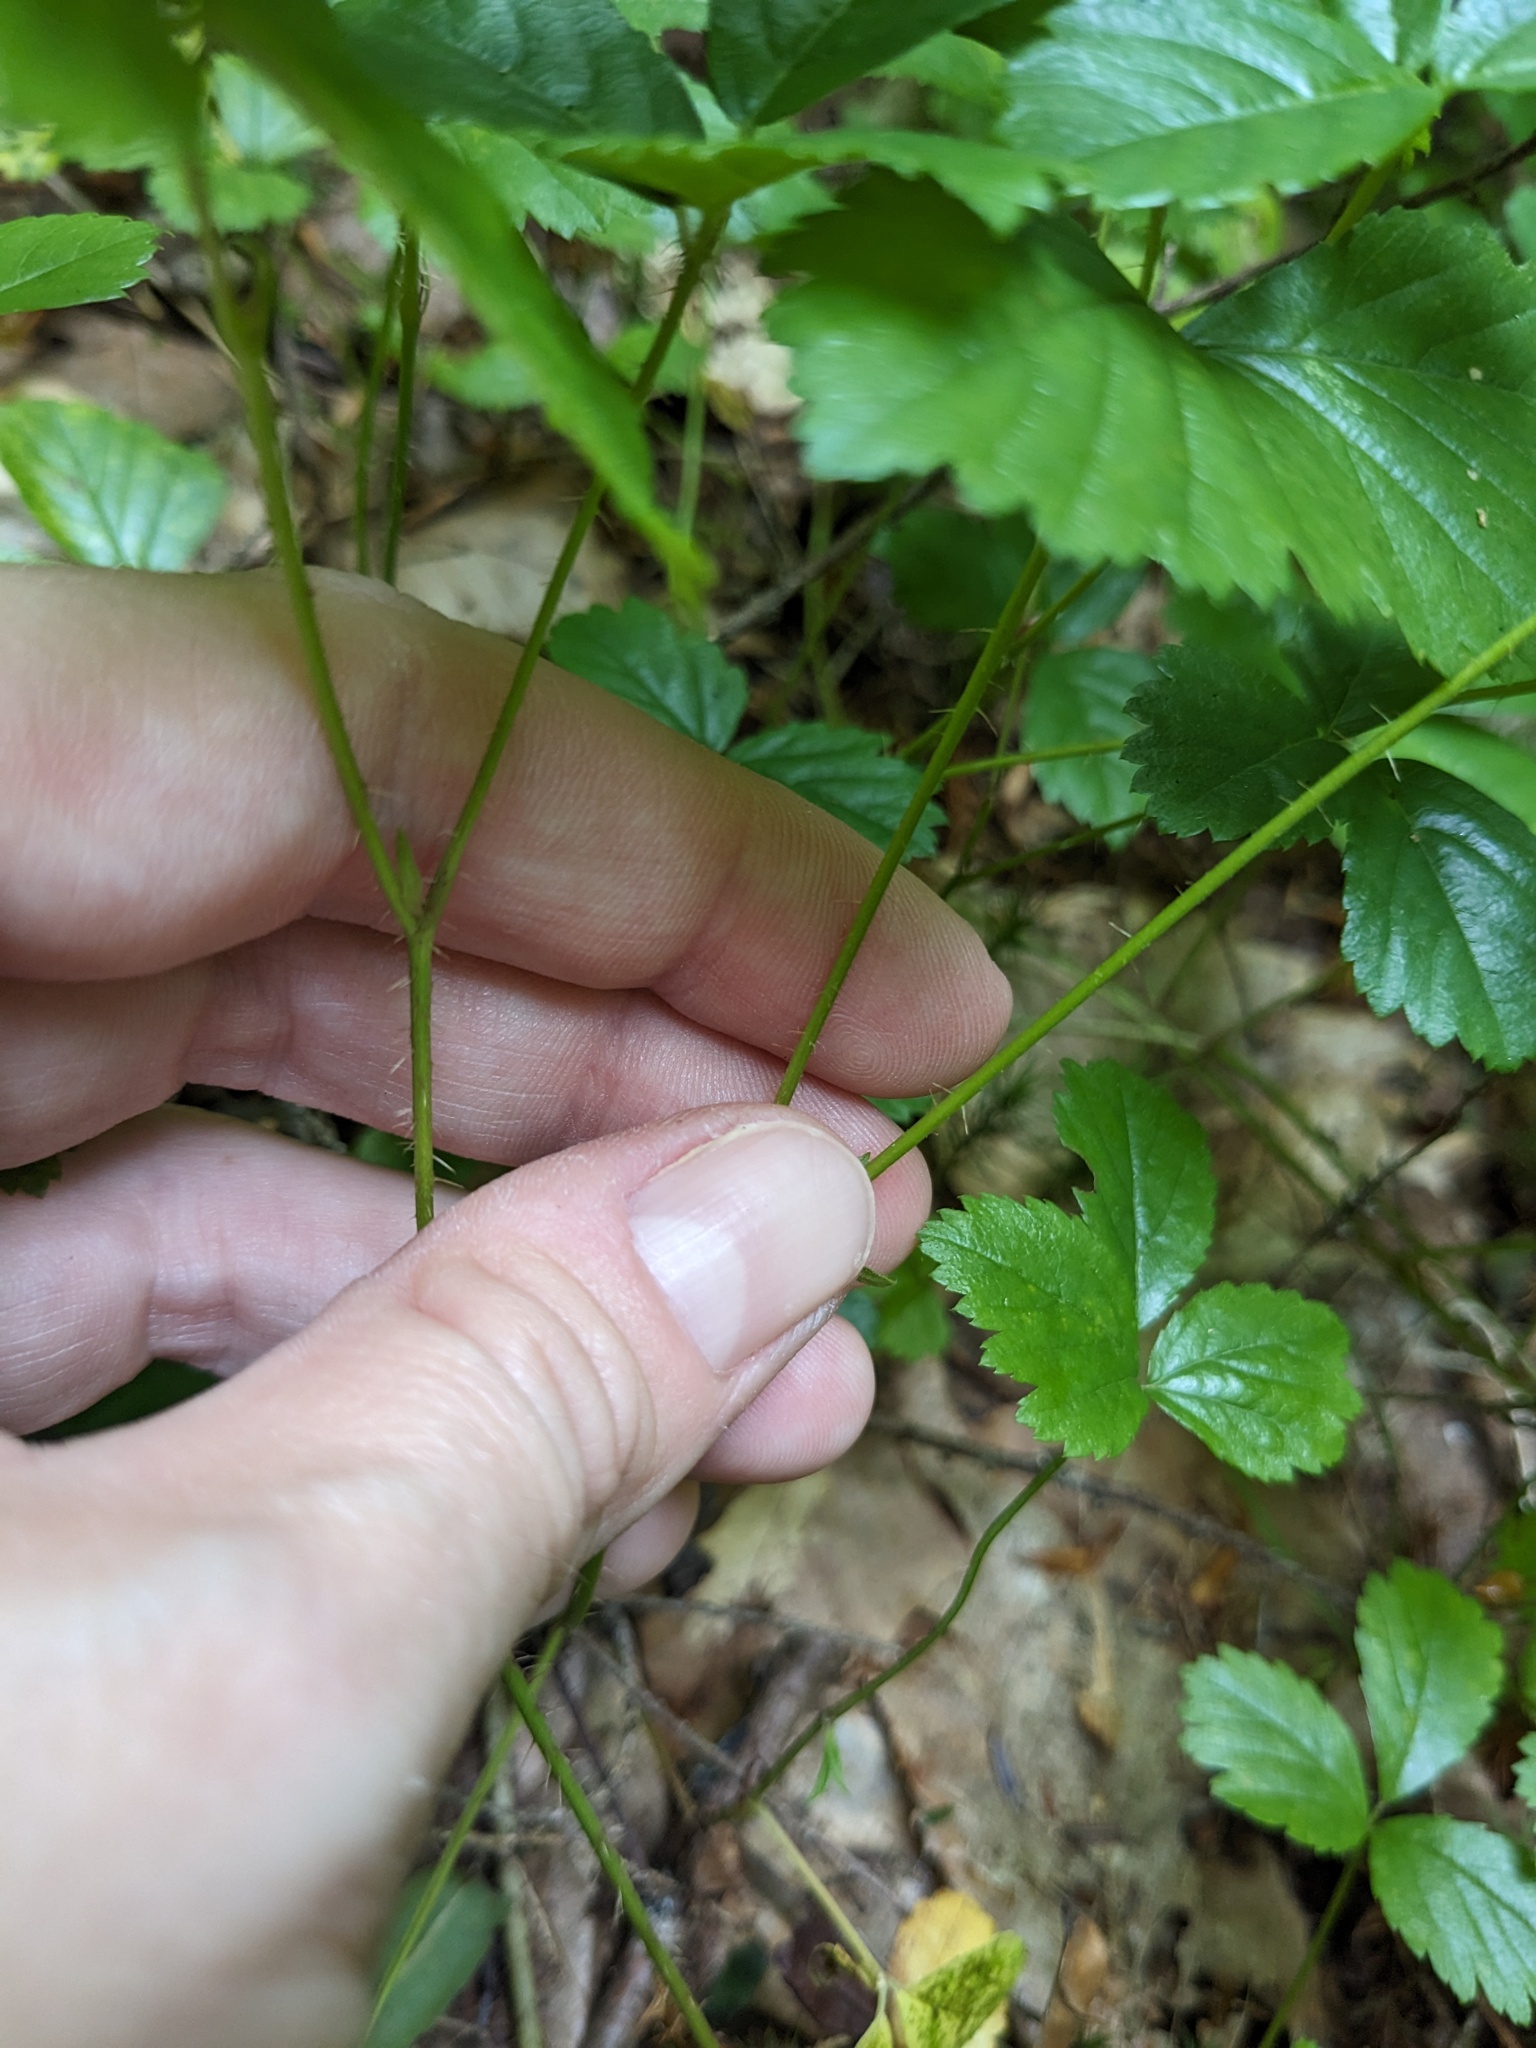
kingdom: Plantae
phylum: Tracheophyta
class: Magnoliopsida
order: Rosales
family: Rosaceae
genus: Rubus
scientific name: Rubus hispidus
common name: Running blackberry
